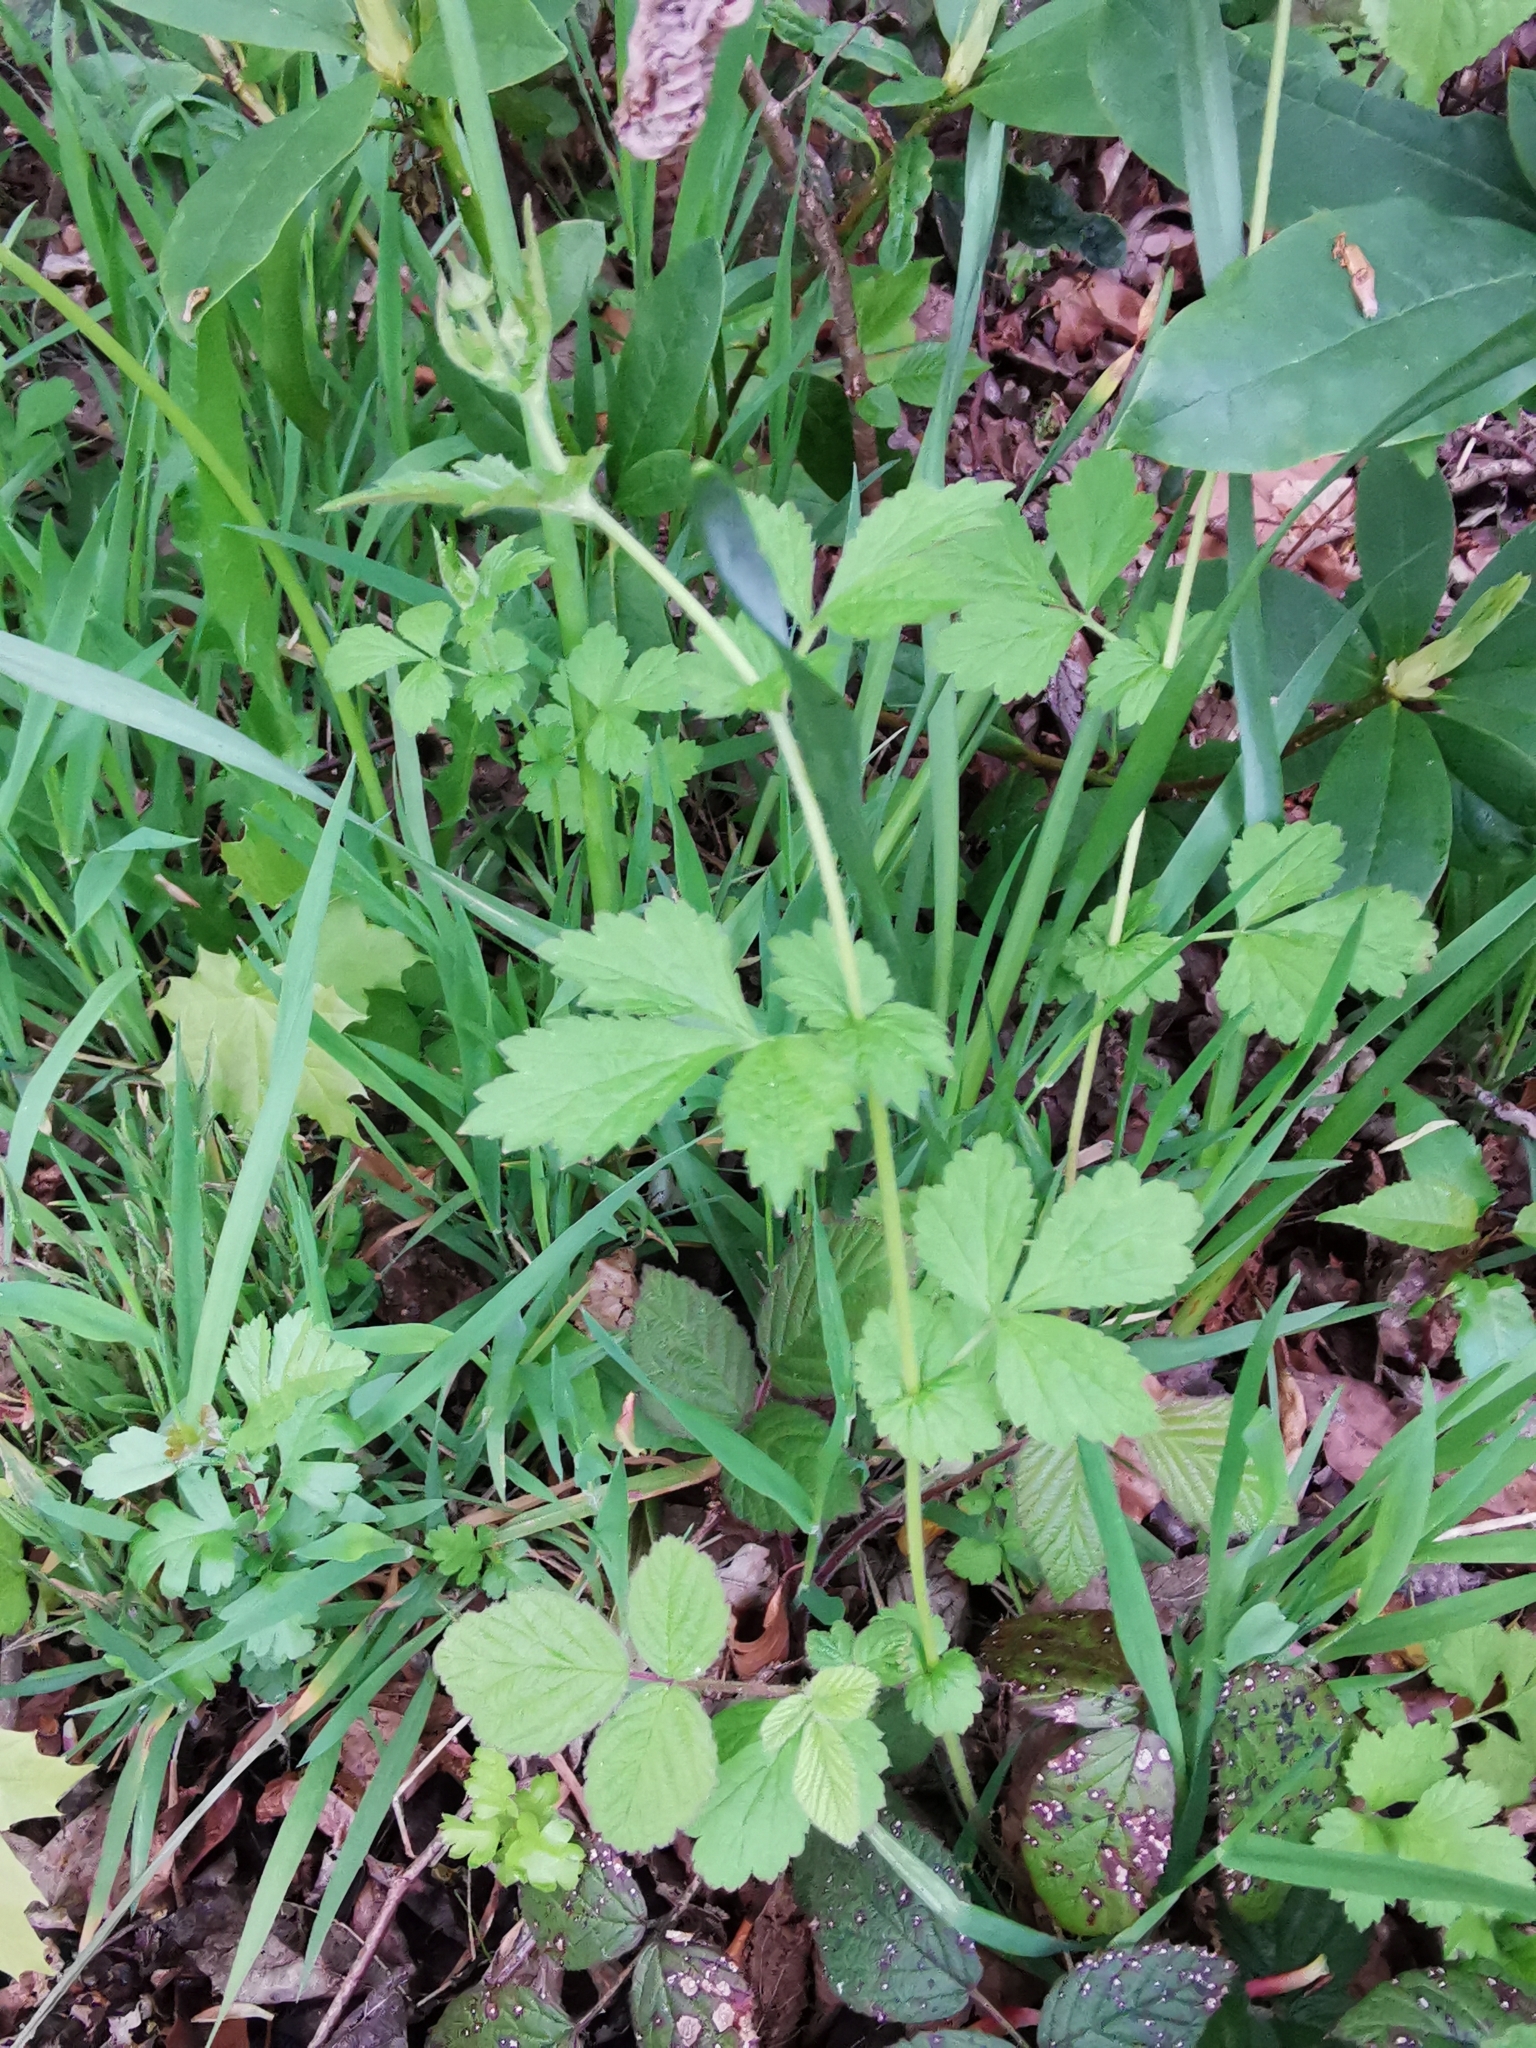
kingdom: Plantae
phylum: Tracheophyta
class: Magnoliopsida
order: Rosales
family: Rosaceae
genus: Geum
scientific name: Geum urbanum
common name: Wood avens
